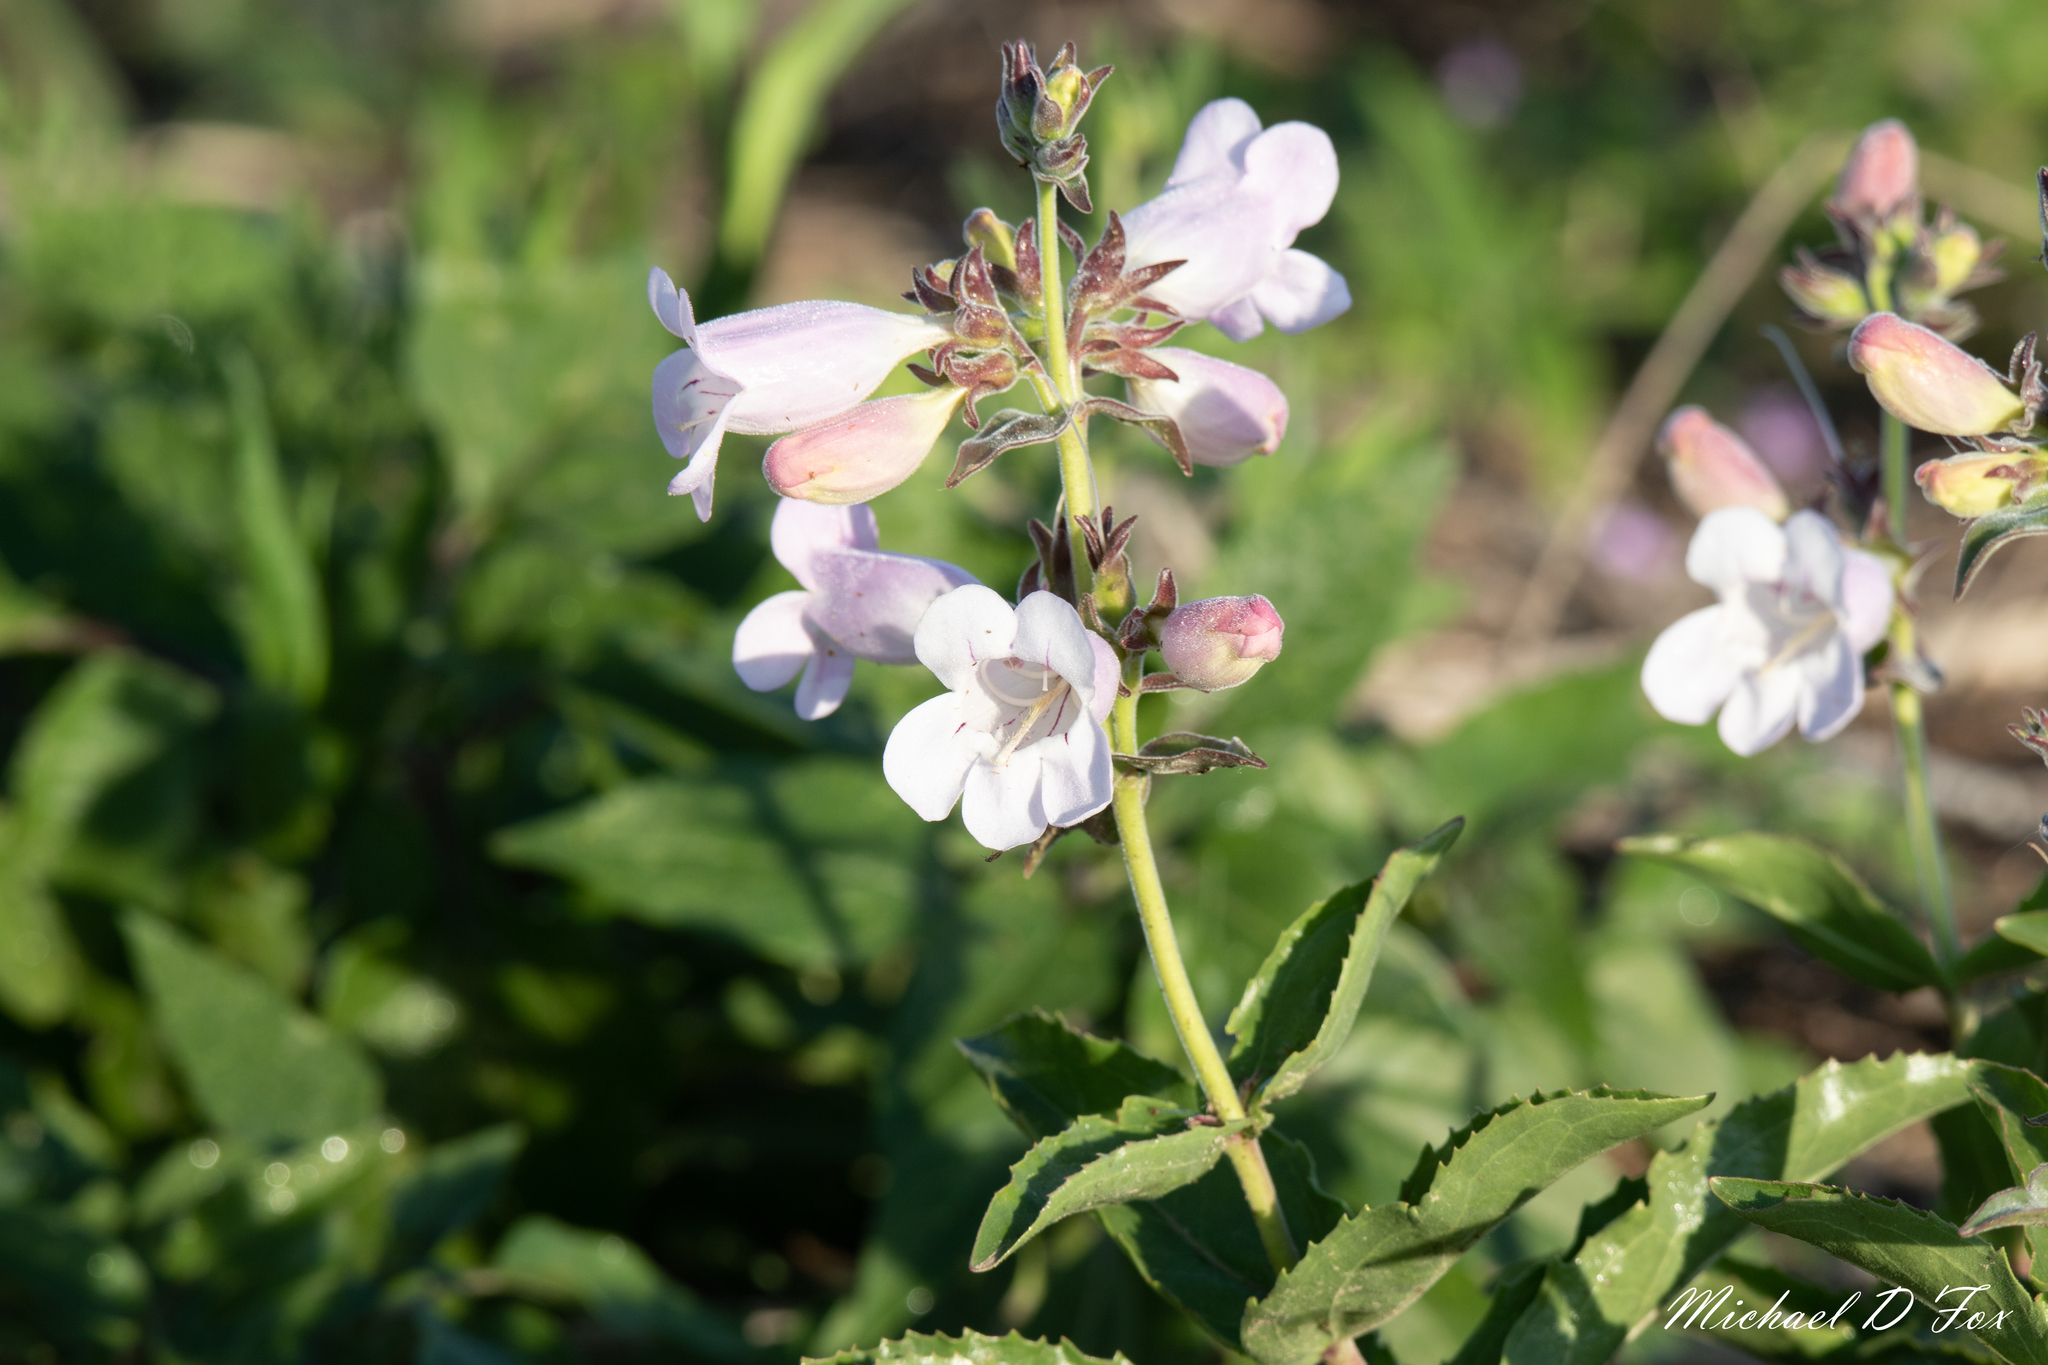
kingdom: Plantae
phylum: Tracheophyta
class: Magnoliopsida
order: Lamiales
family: Plantaginaceae
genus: Penstemon
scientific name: Penstemon cobaea
